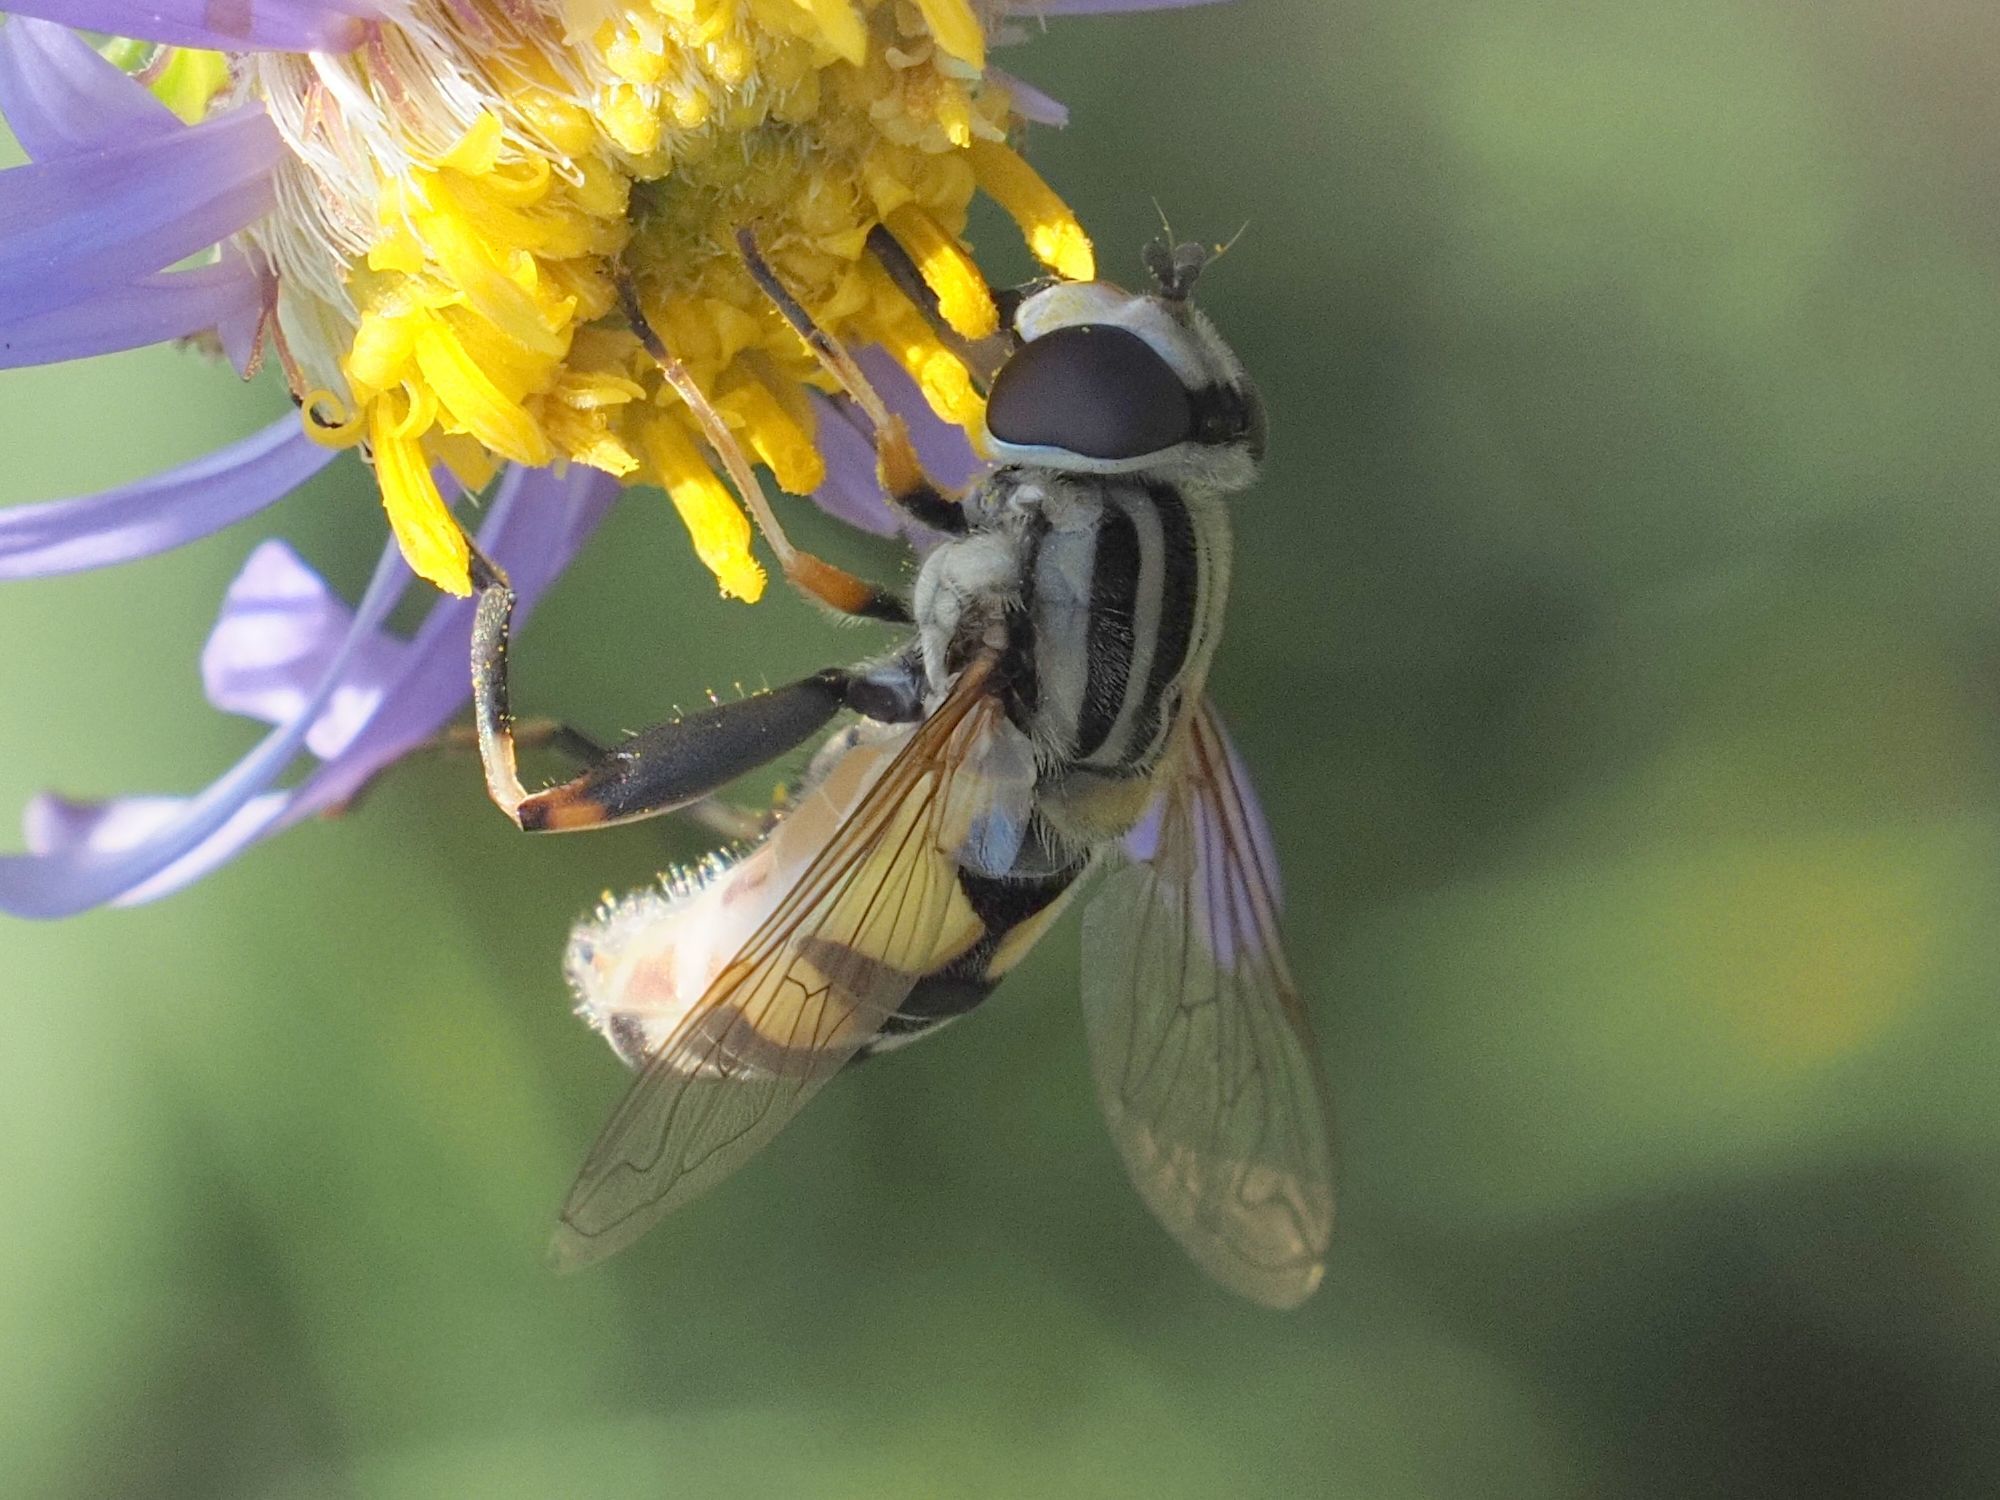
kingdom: Animalia
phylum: Arthropoda
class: Insecta
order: Diptera
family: Syrphidae
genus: Helophilus
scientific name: Helophilus trivittatus
